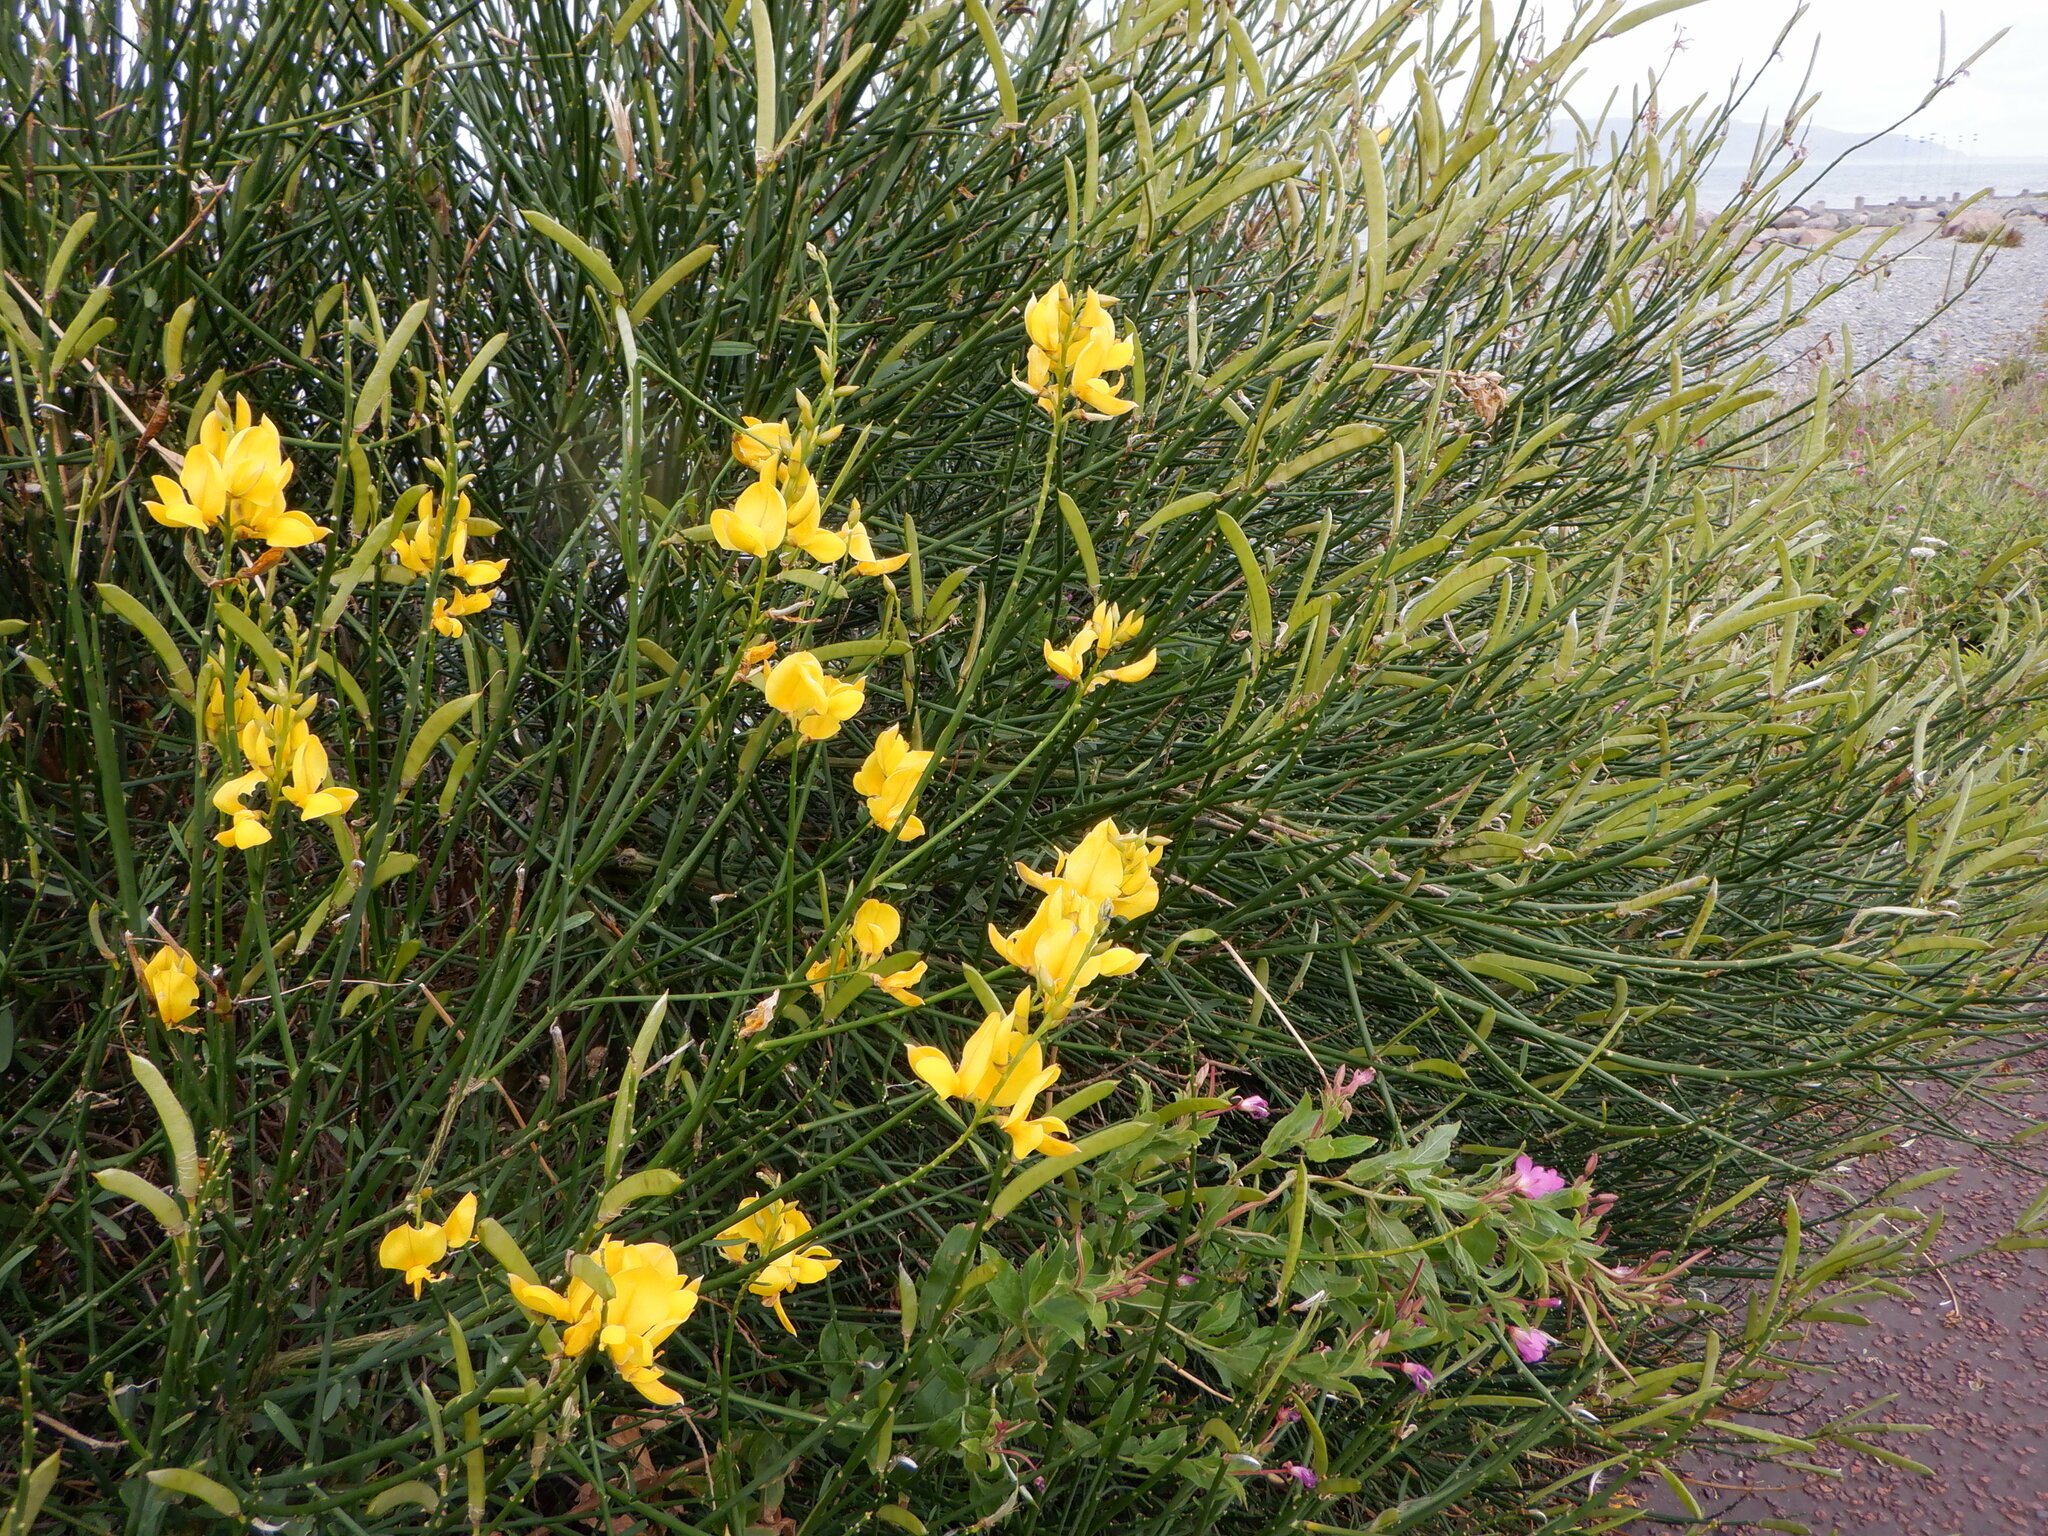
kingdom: Plantae
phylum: Tracheophyta
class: Magnoliopsida
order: Fabales
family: Fabaceae
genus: Spartium
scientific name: Spartium junceum
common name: Spanish broom
